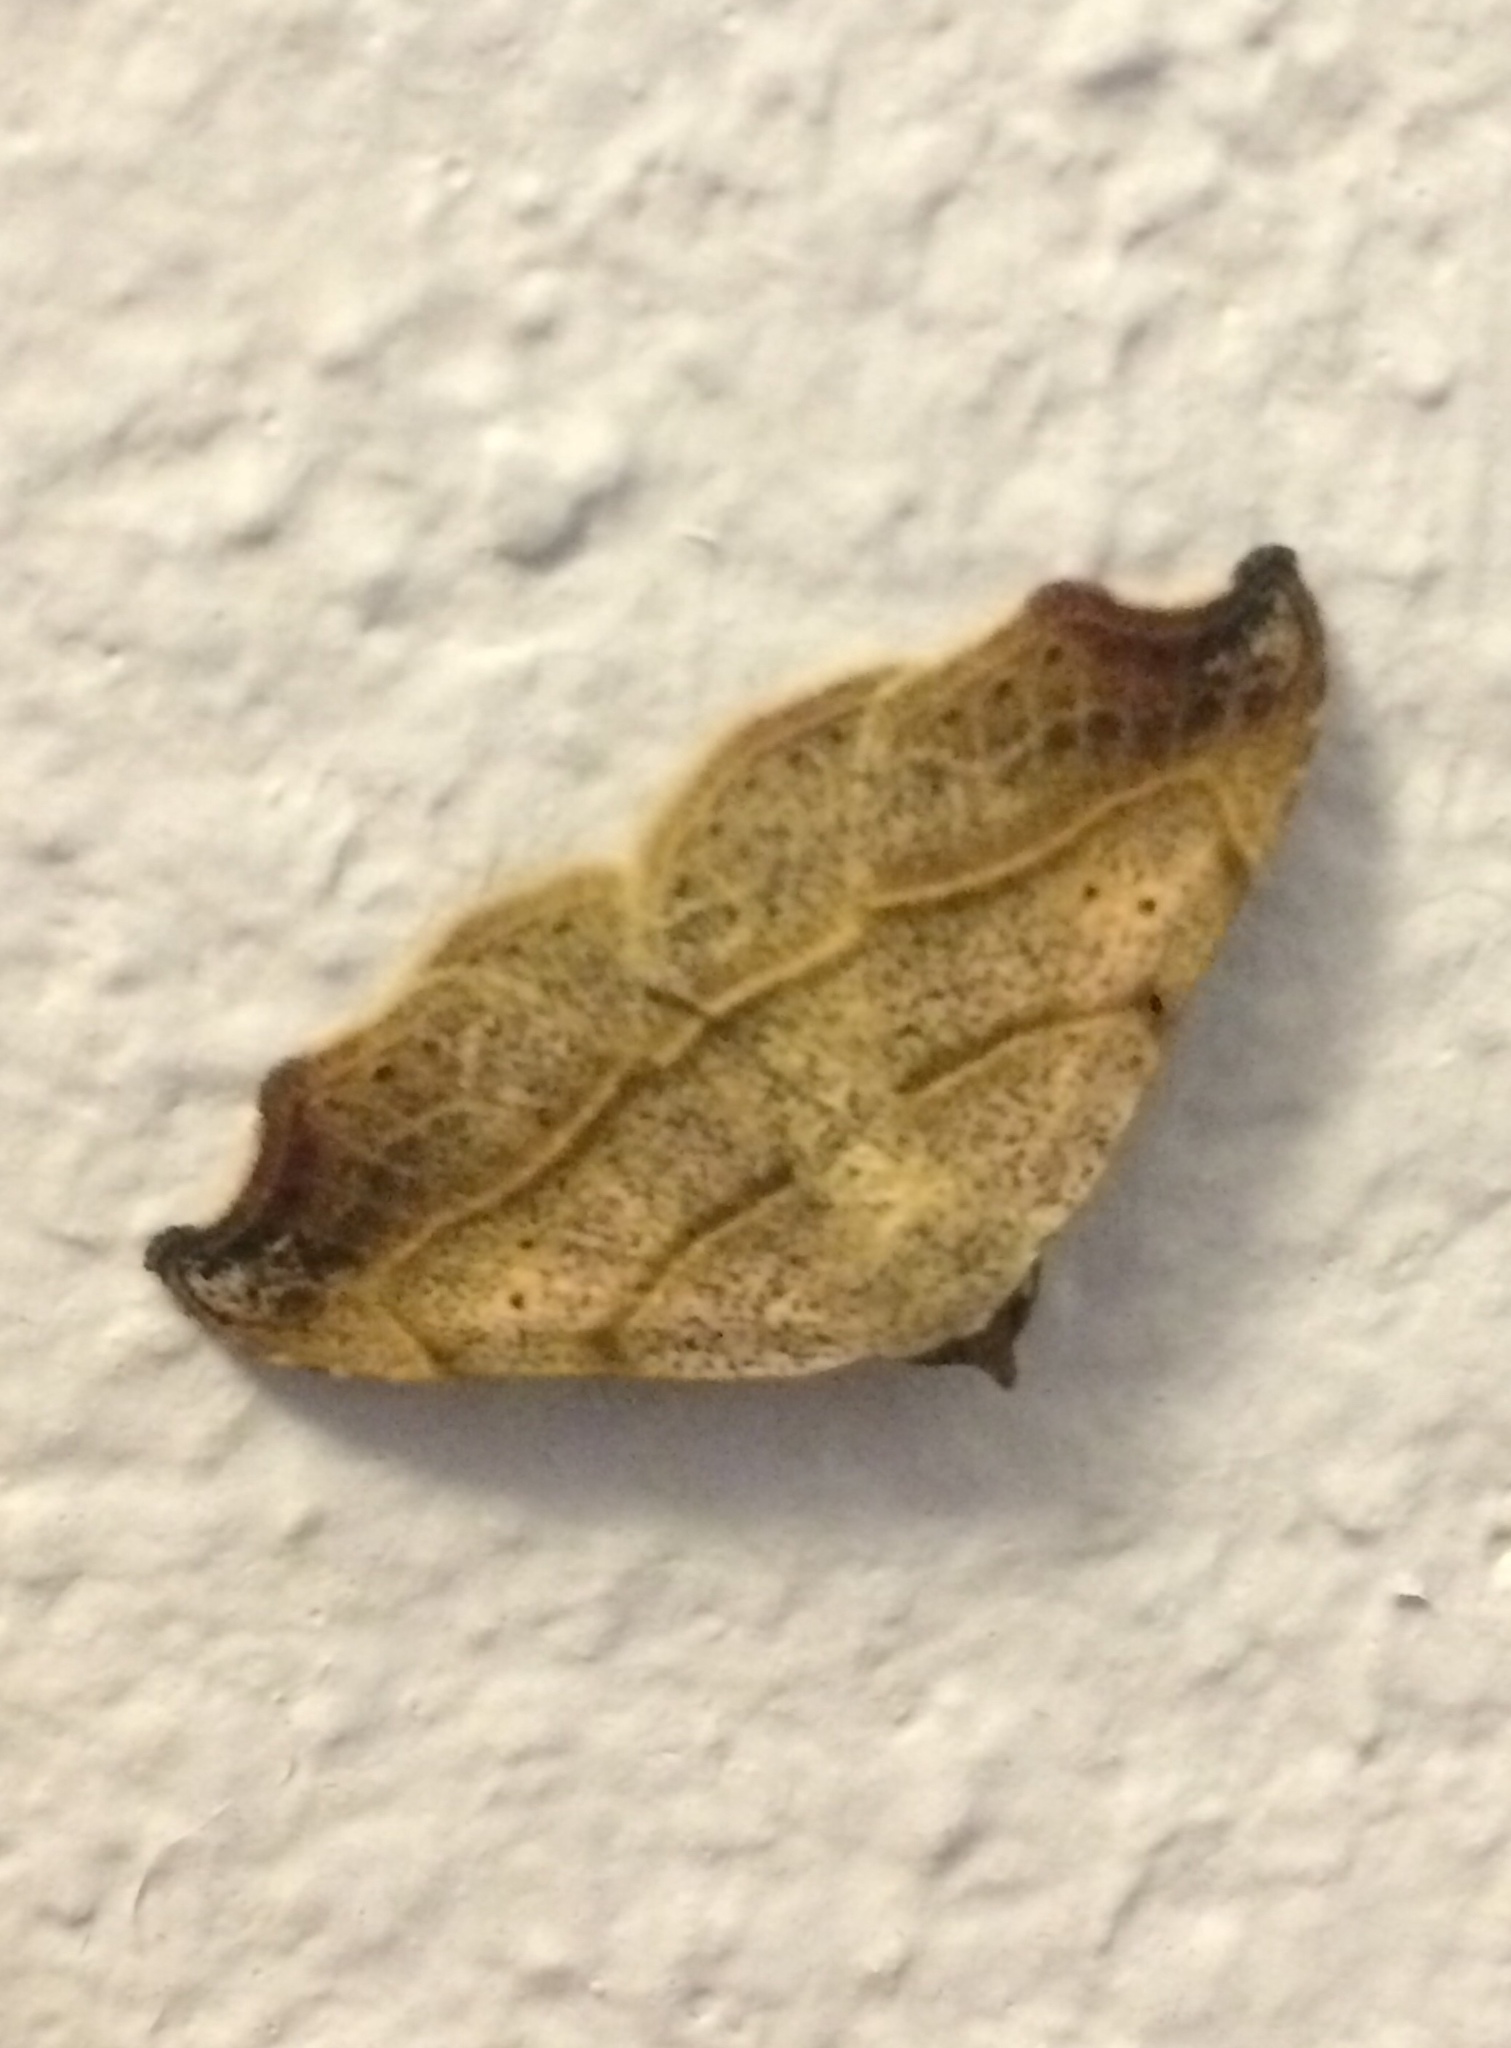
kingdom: Animalia
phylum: Arthropoda
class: Insecta
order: Lepidoptera
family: Erebidae
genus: Laspeyria
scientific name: Laspeyria flexula
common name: Beautiful hook-tip
